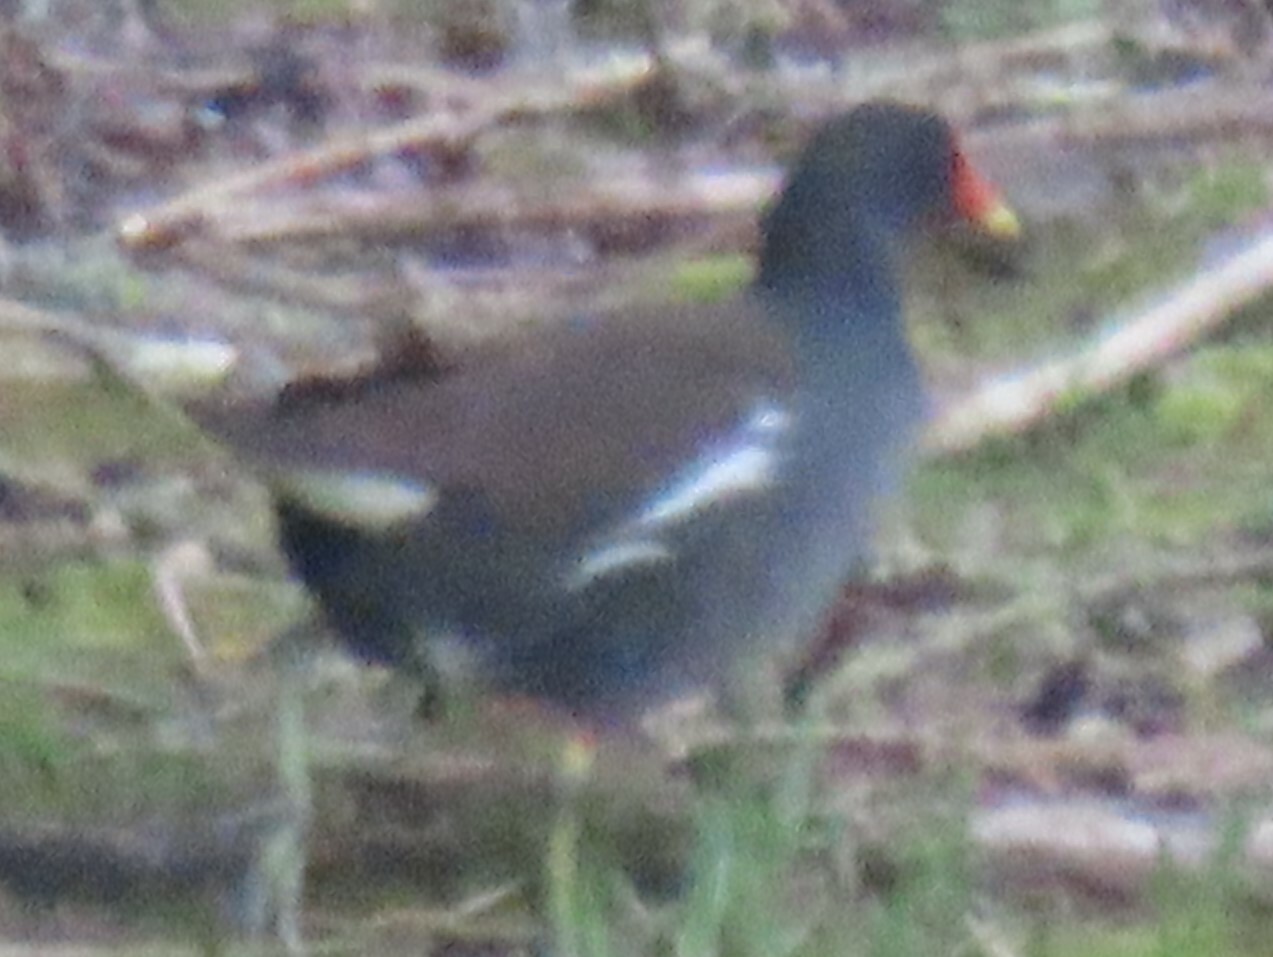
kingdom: Animalia
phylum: Chordata
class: Aves
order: Gruiformes
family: Rallidae
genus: Gallinula
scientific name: Gallinula chloropus
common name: Common moorhen
